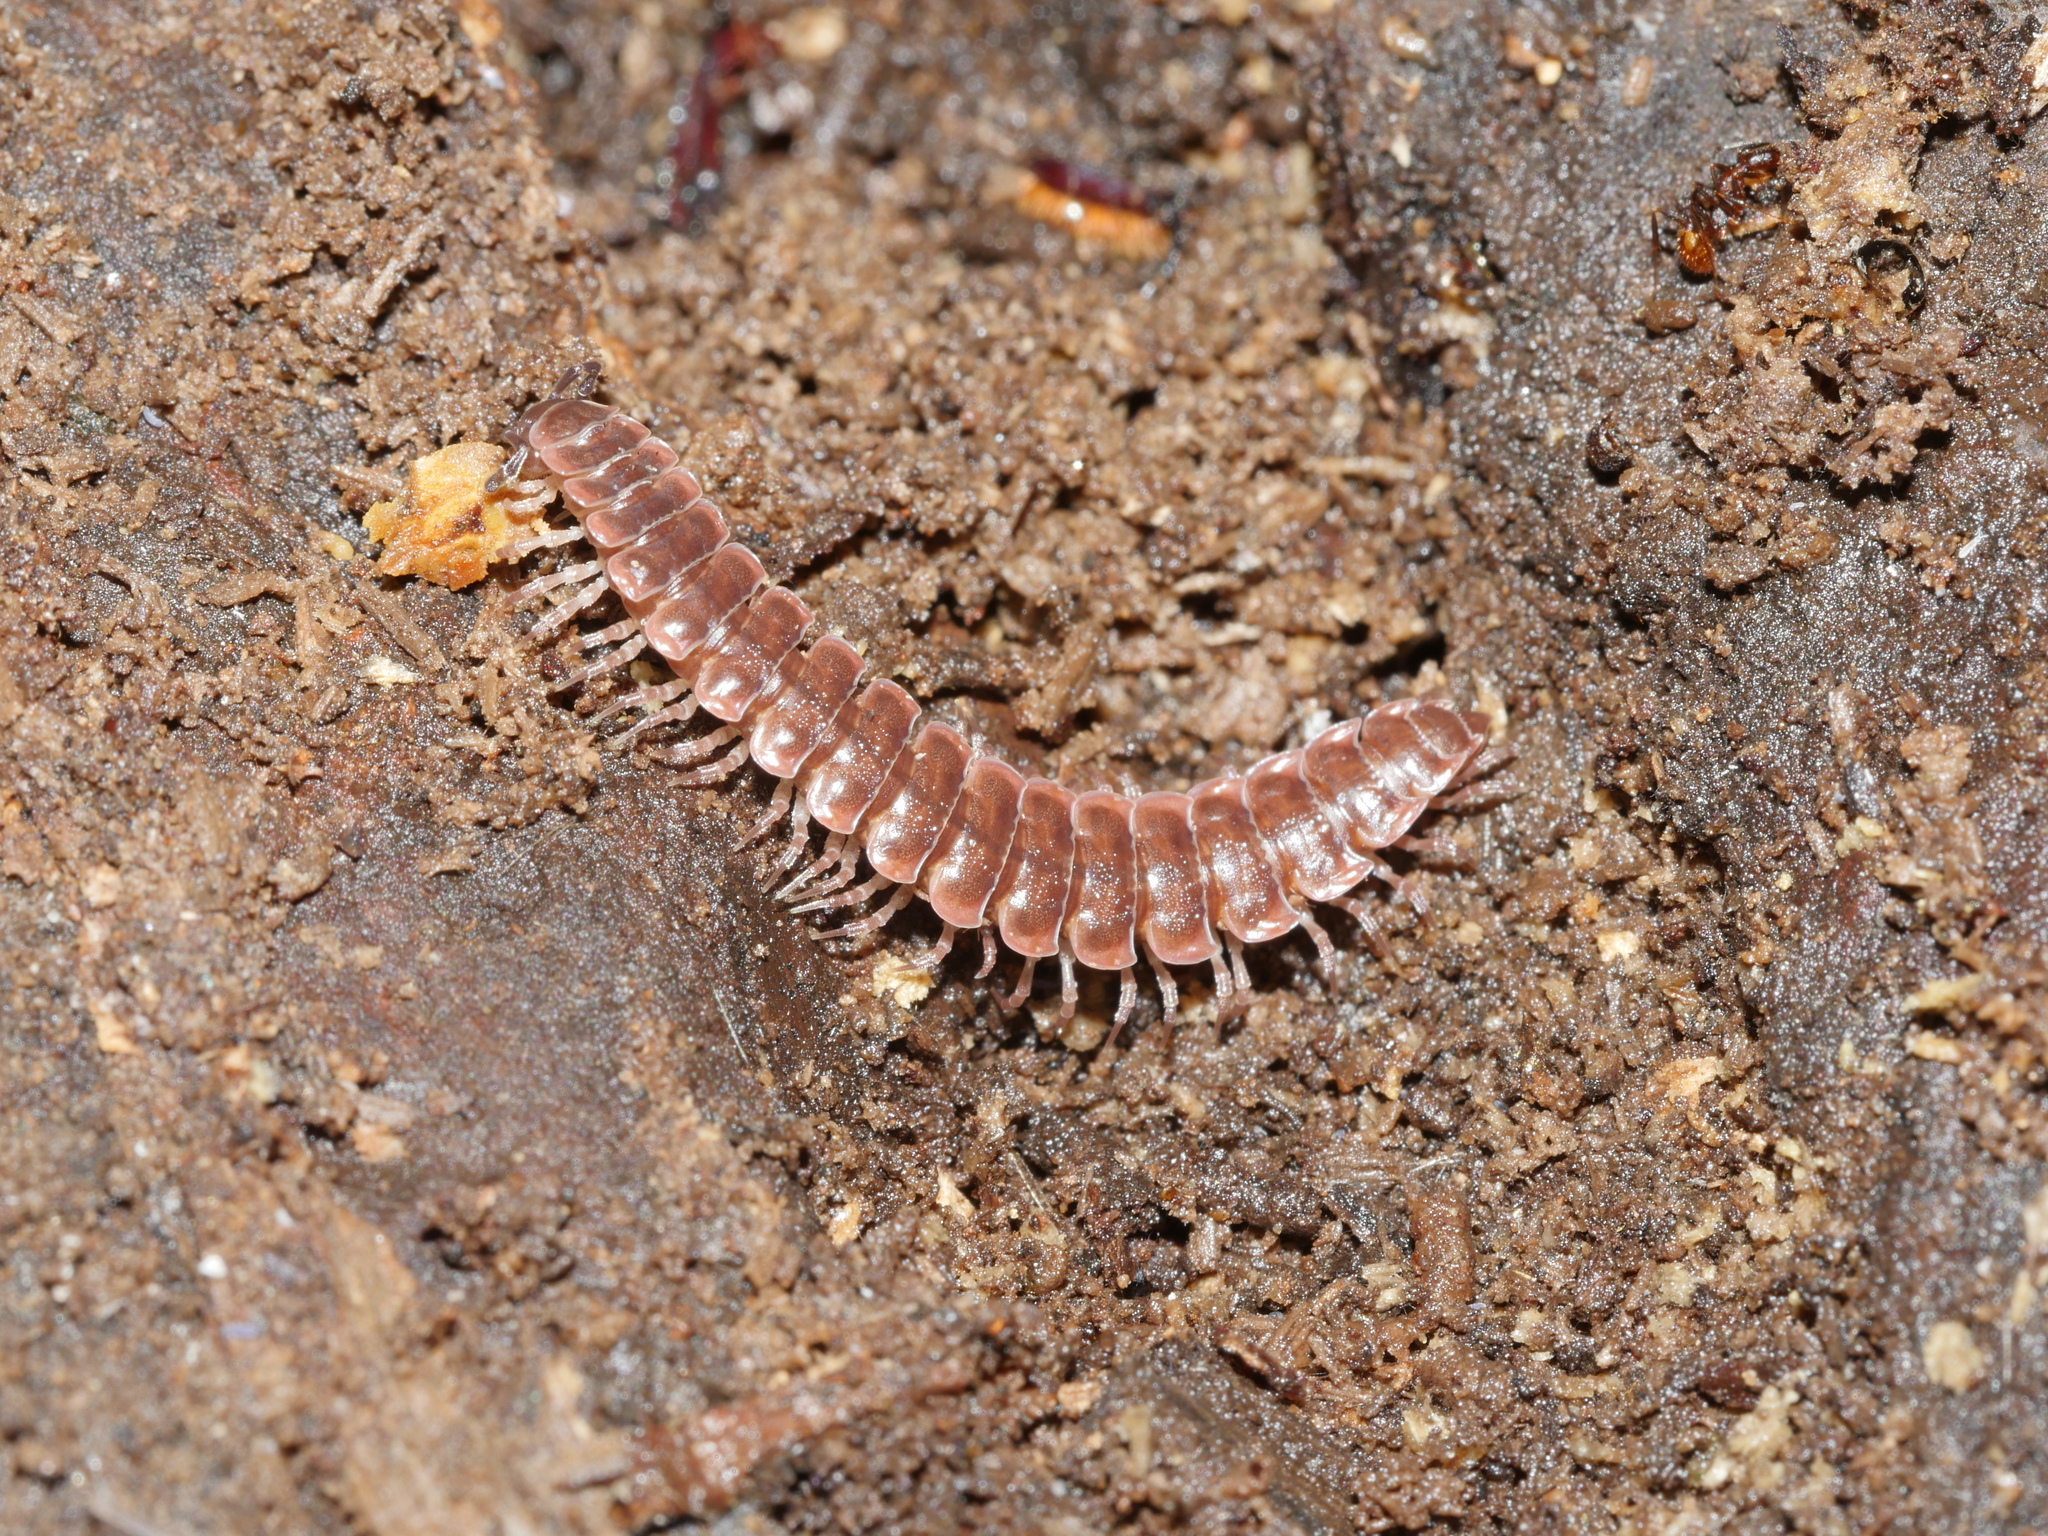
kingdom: Animalia
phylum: Arthropoda
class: Diplopoda
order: Polydesmida
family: Polydesmidae
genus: Pseudopolydesmus
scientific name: Pseudopolydesmus serratus
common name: Common pink flat-back millipede
